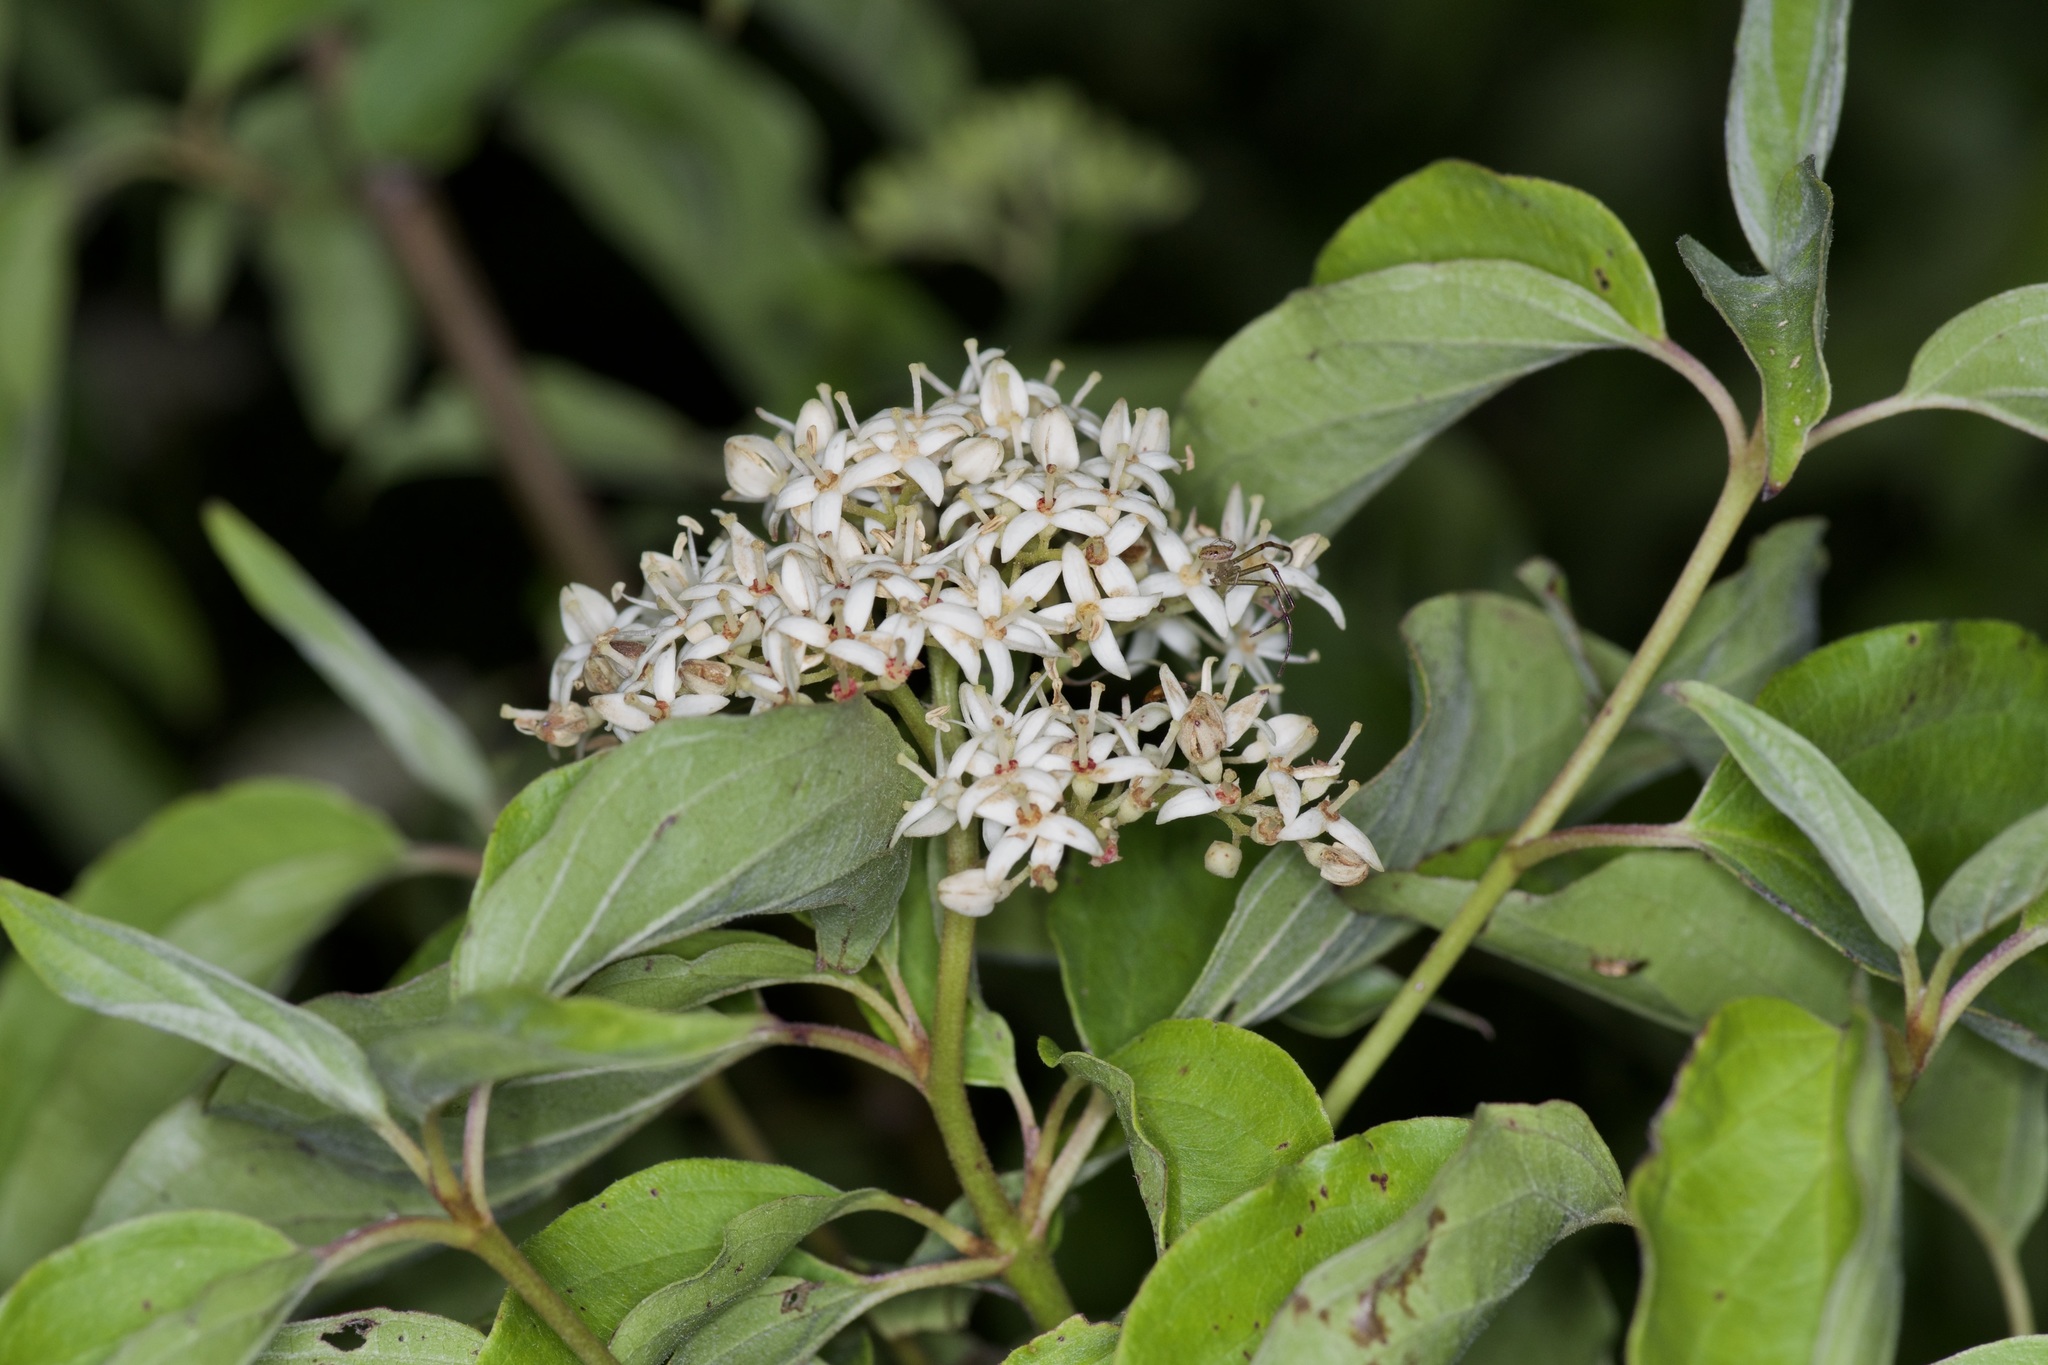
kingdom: Plantae
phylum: Tracheophyta
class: Magnoliopsida
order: Cornales
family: Cornaceae
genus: Cornus
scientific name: Cornus drummondii
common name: Rough-leaf dogwood
